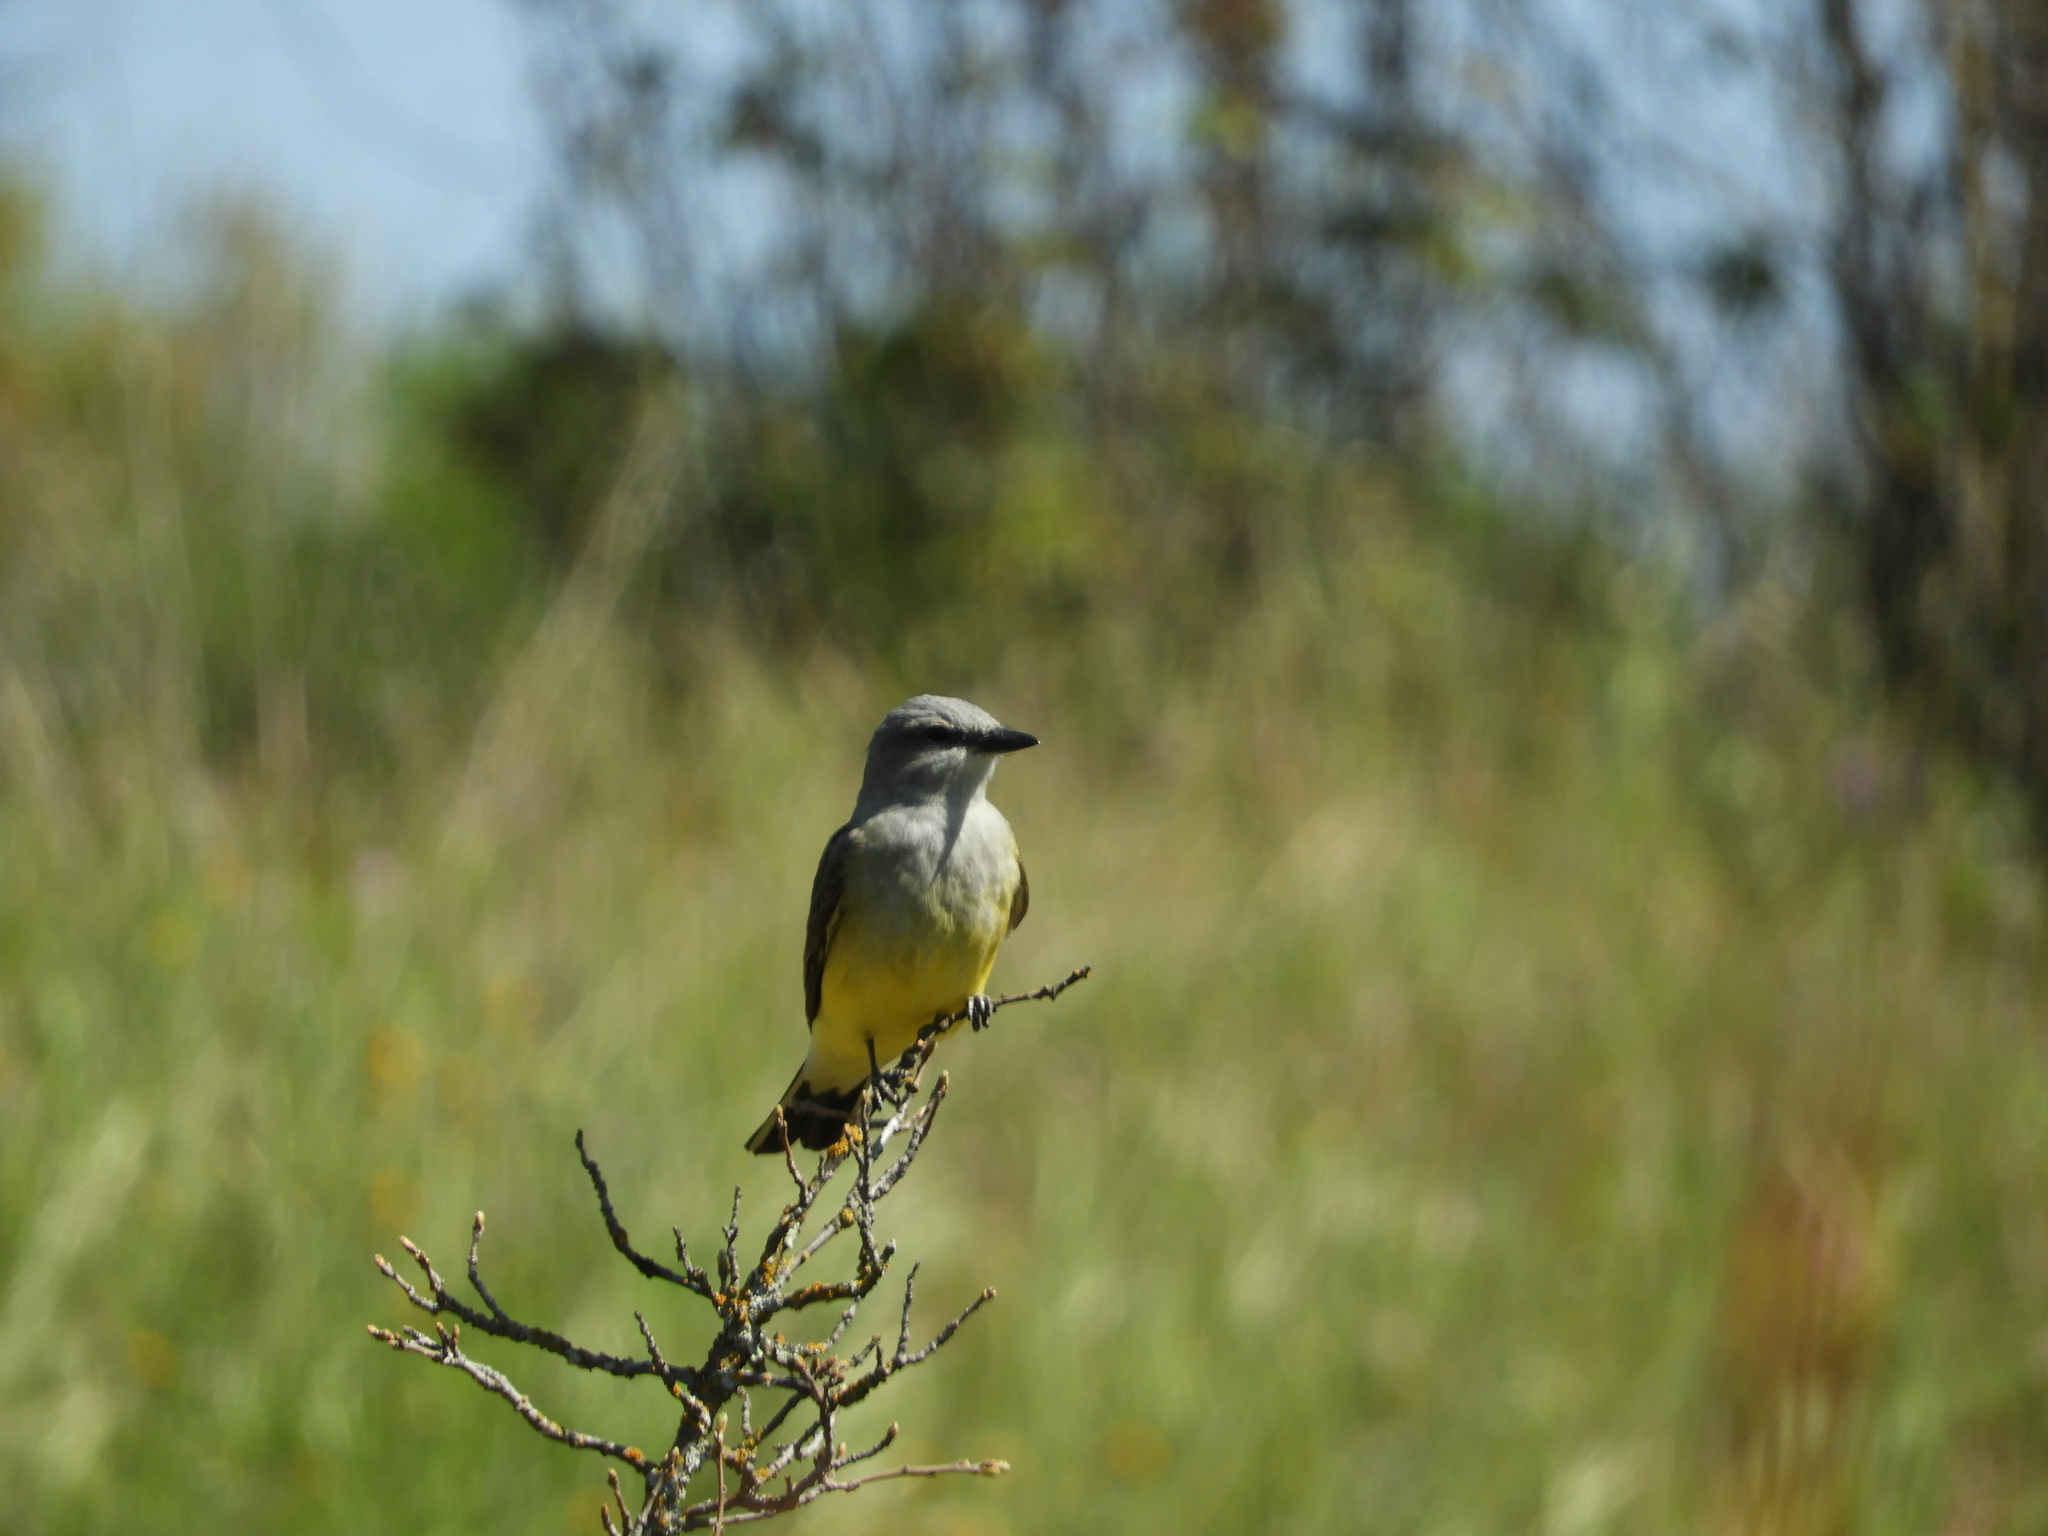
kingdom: Animalia
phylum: Chordata
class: Aves
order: Passeriformes
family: Tyrannidae
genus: Tyrannus
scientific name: Tyrannus verticalis
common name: Western kingbird
